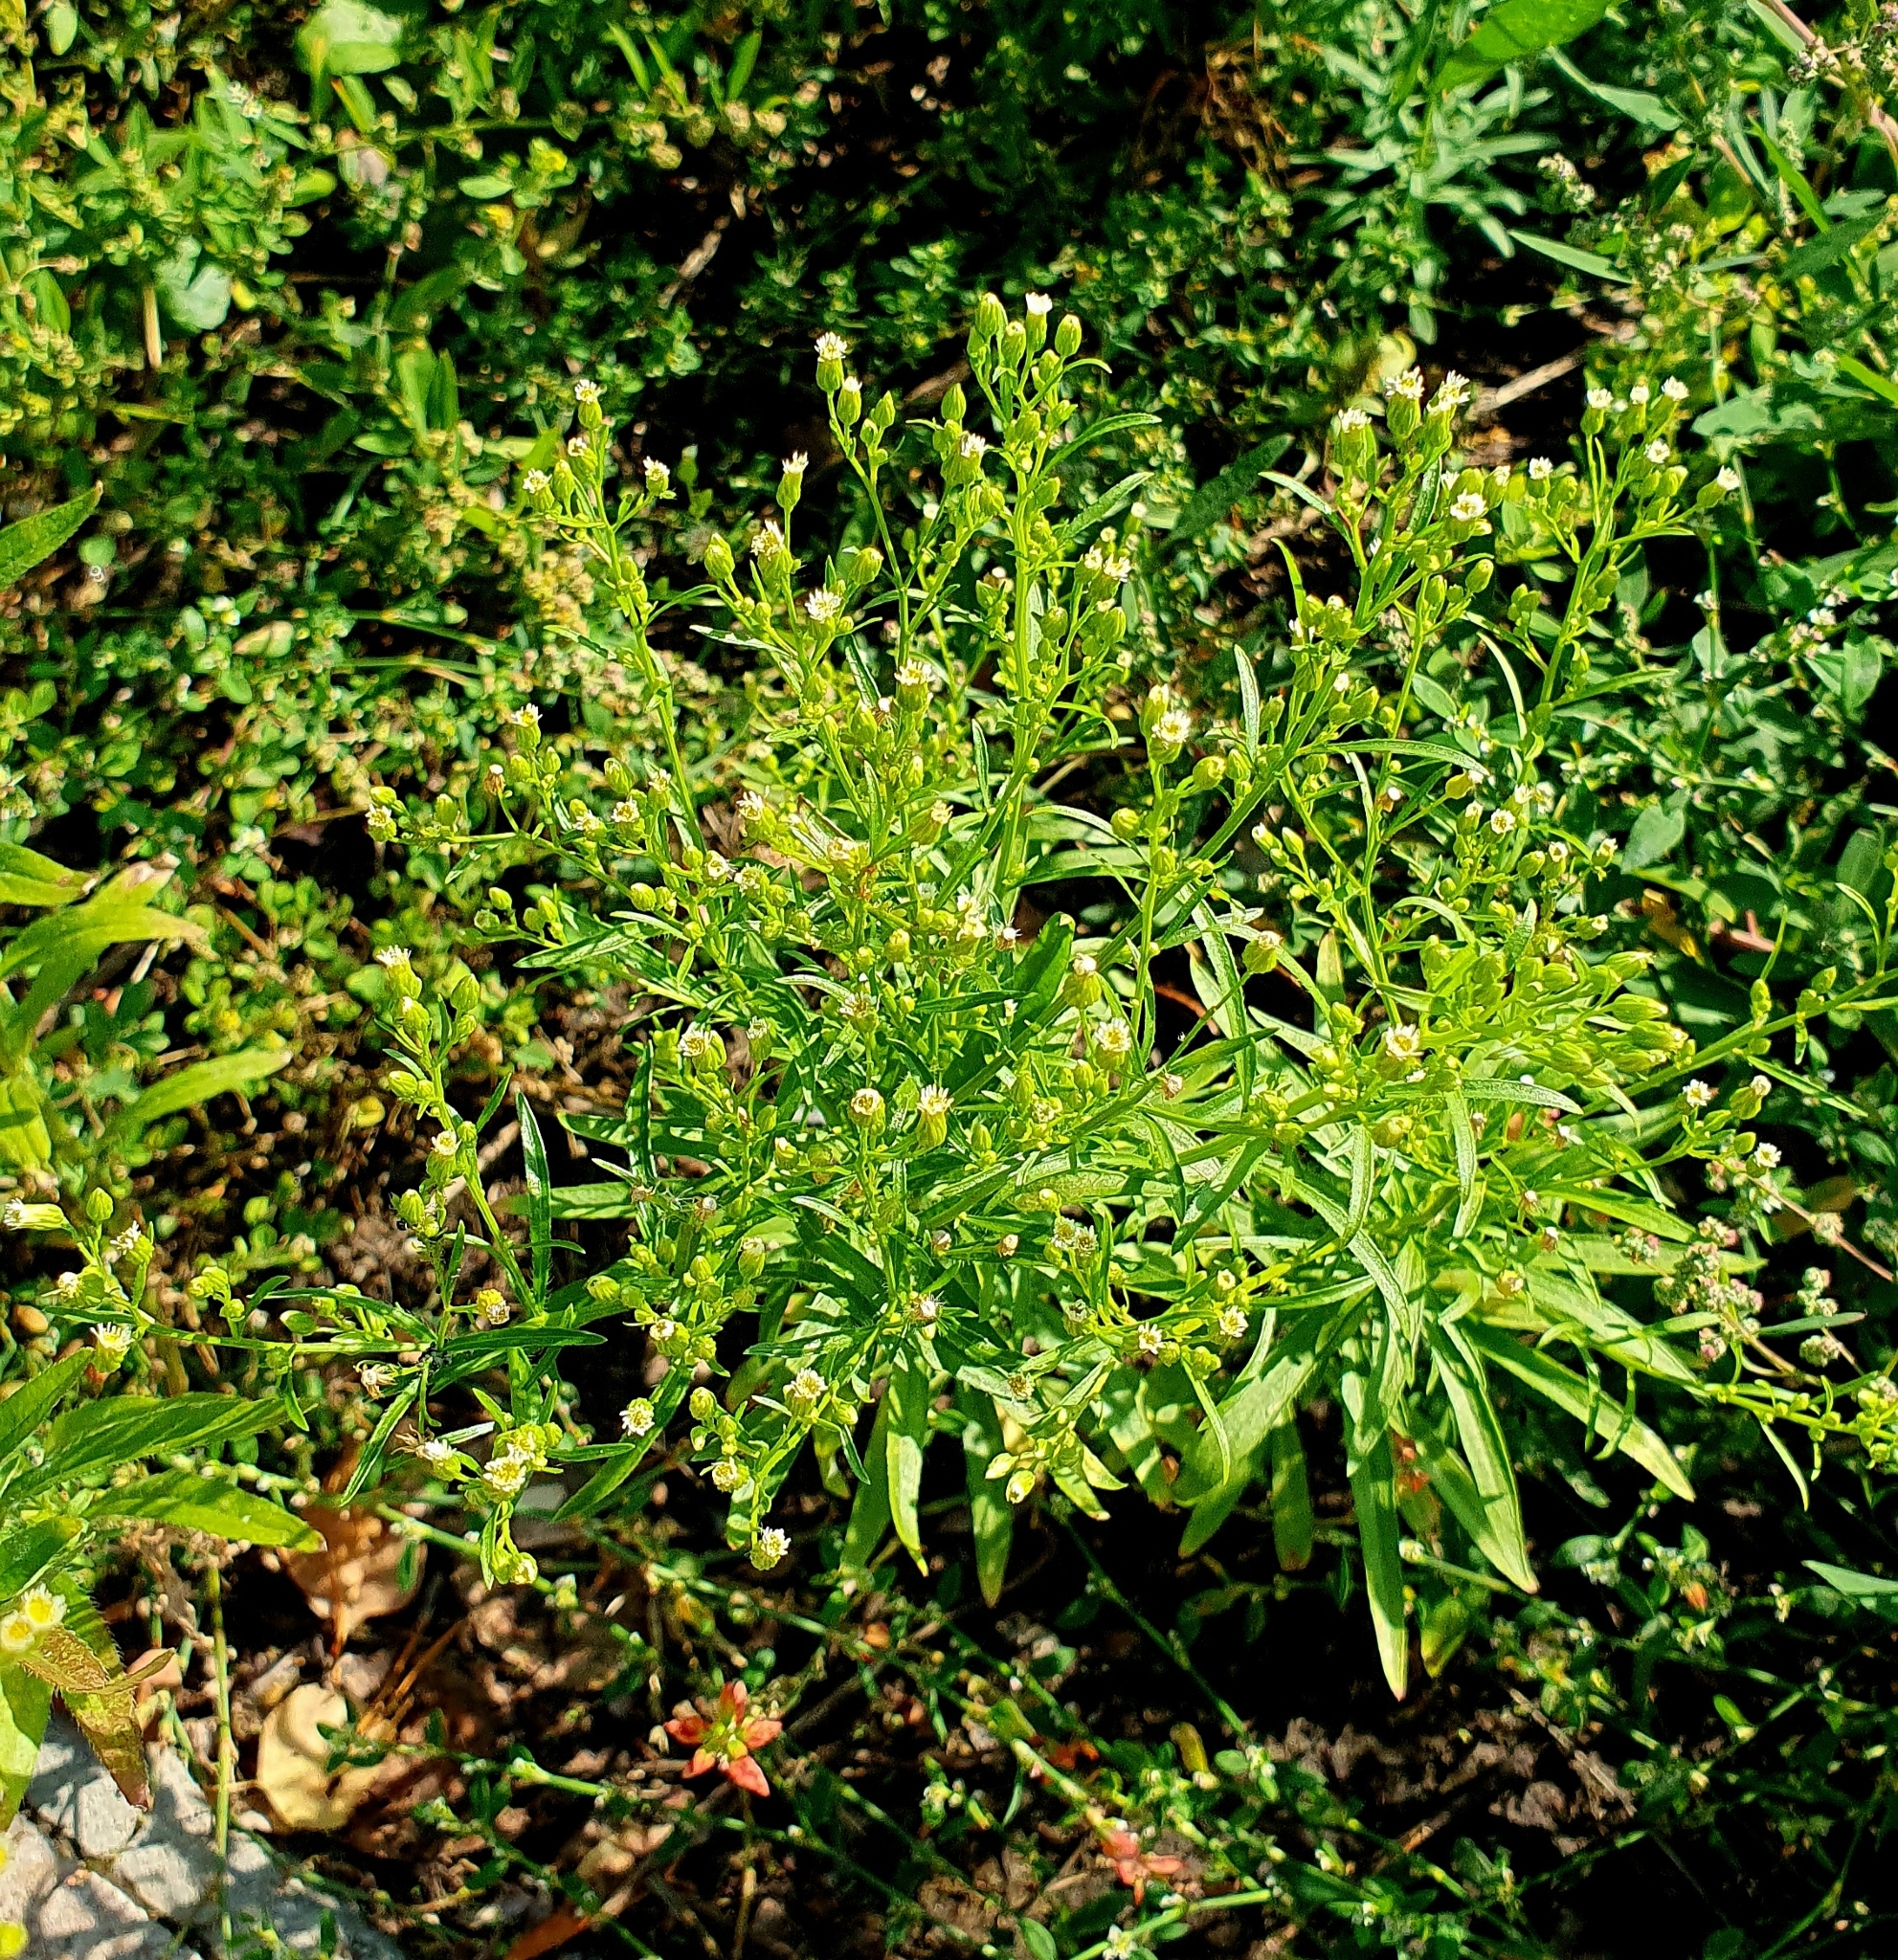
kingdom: Plantae
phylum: Tracheophyta
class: Magnoliopsida
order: Asterales
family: Asteraceae
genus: Erigeron
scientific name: Erigeron canadensis
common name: Canadian fleabane
